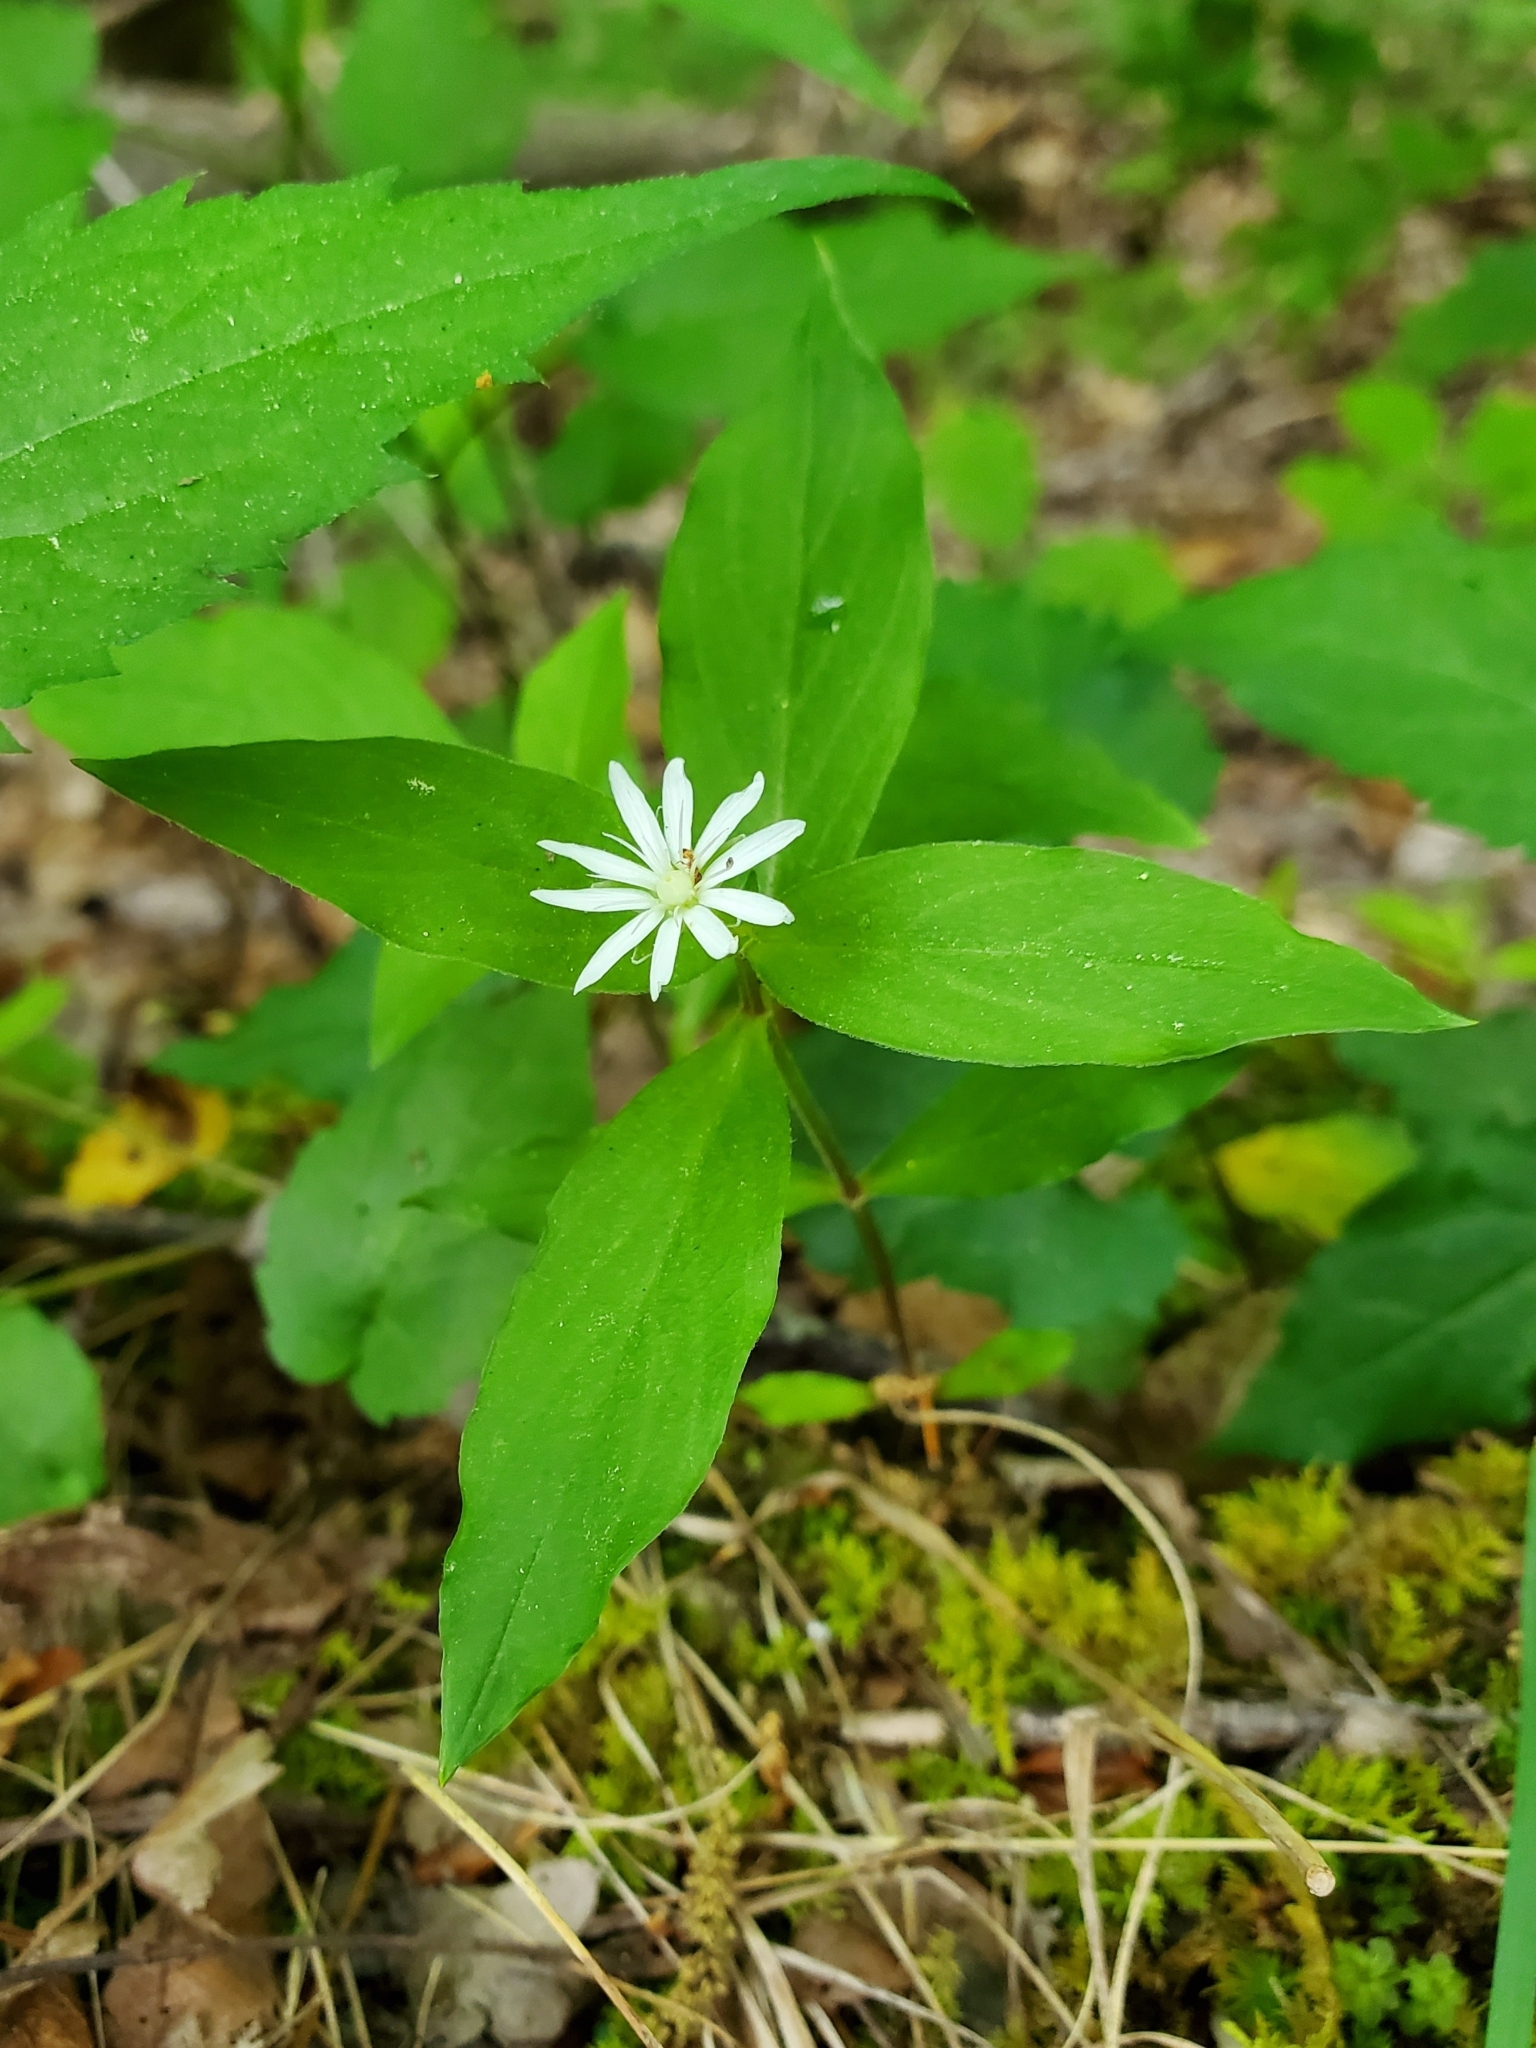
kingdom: Plantae
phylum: Tracheophyta
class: Magnoliopsida
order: Caryophyllales
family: Caryophyllaceae
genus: Stellaria
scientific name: Stellaria pubera
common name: Star chickweed
